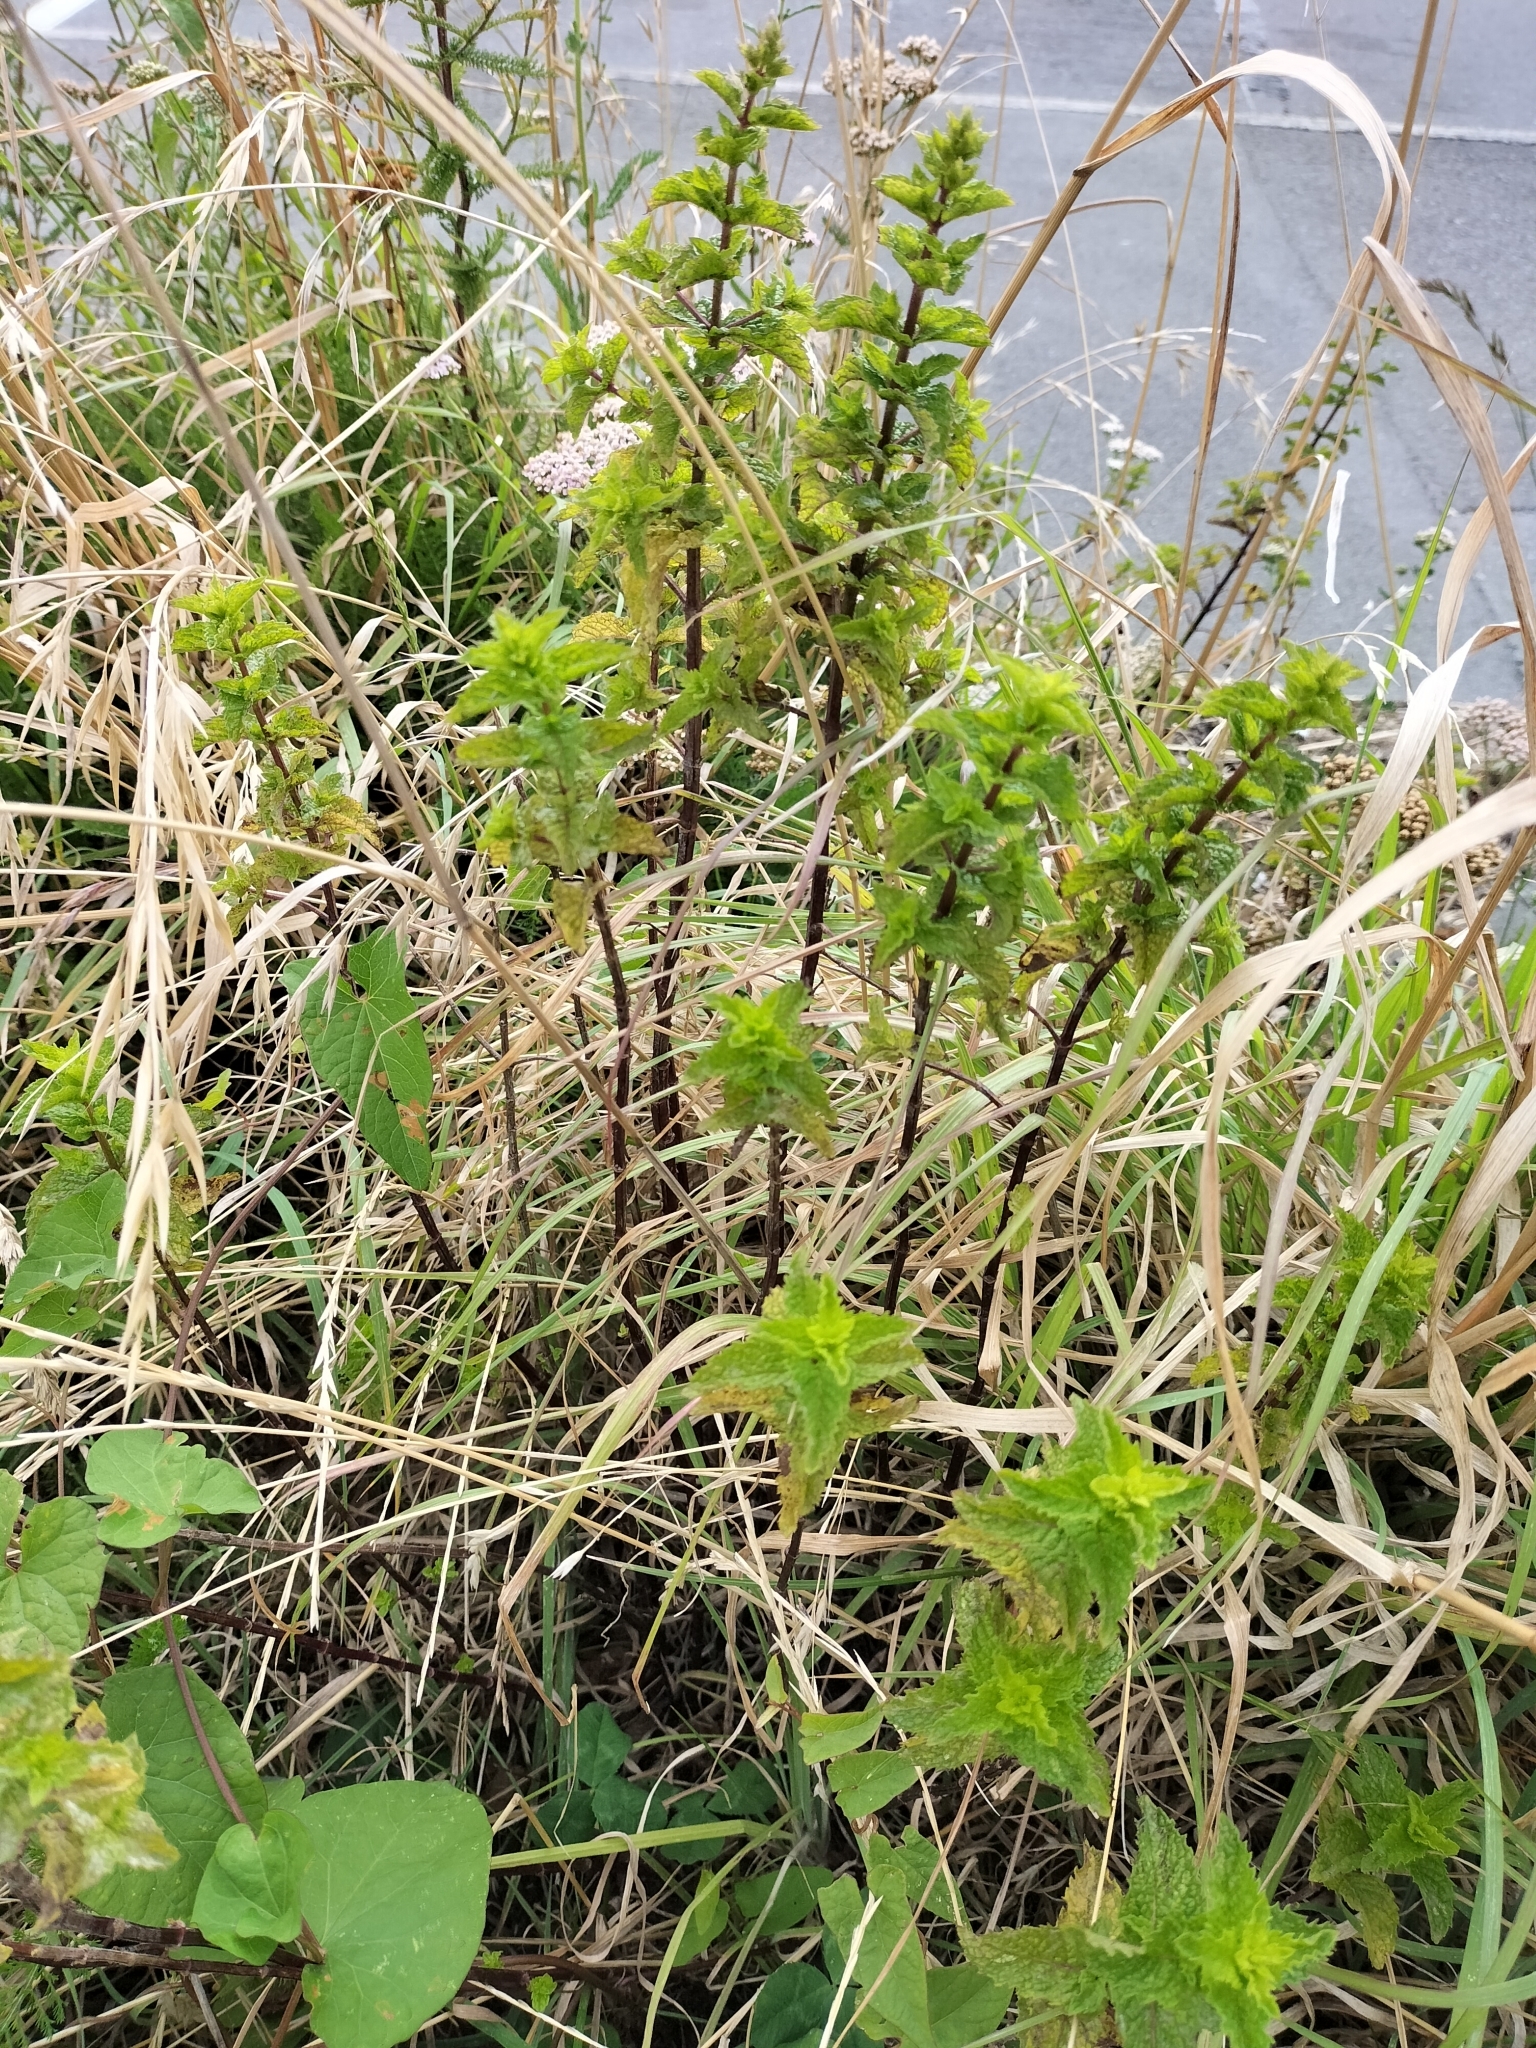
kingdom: Plantae
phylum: Tracheophyta
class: Magnoliopsida
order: Lamiales
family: Lamiaceae
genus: Mentha
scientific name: Mentha spicata
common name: Spearmint
